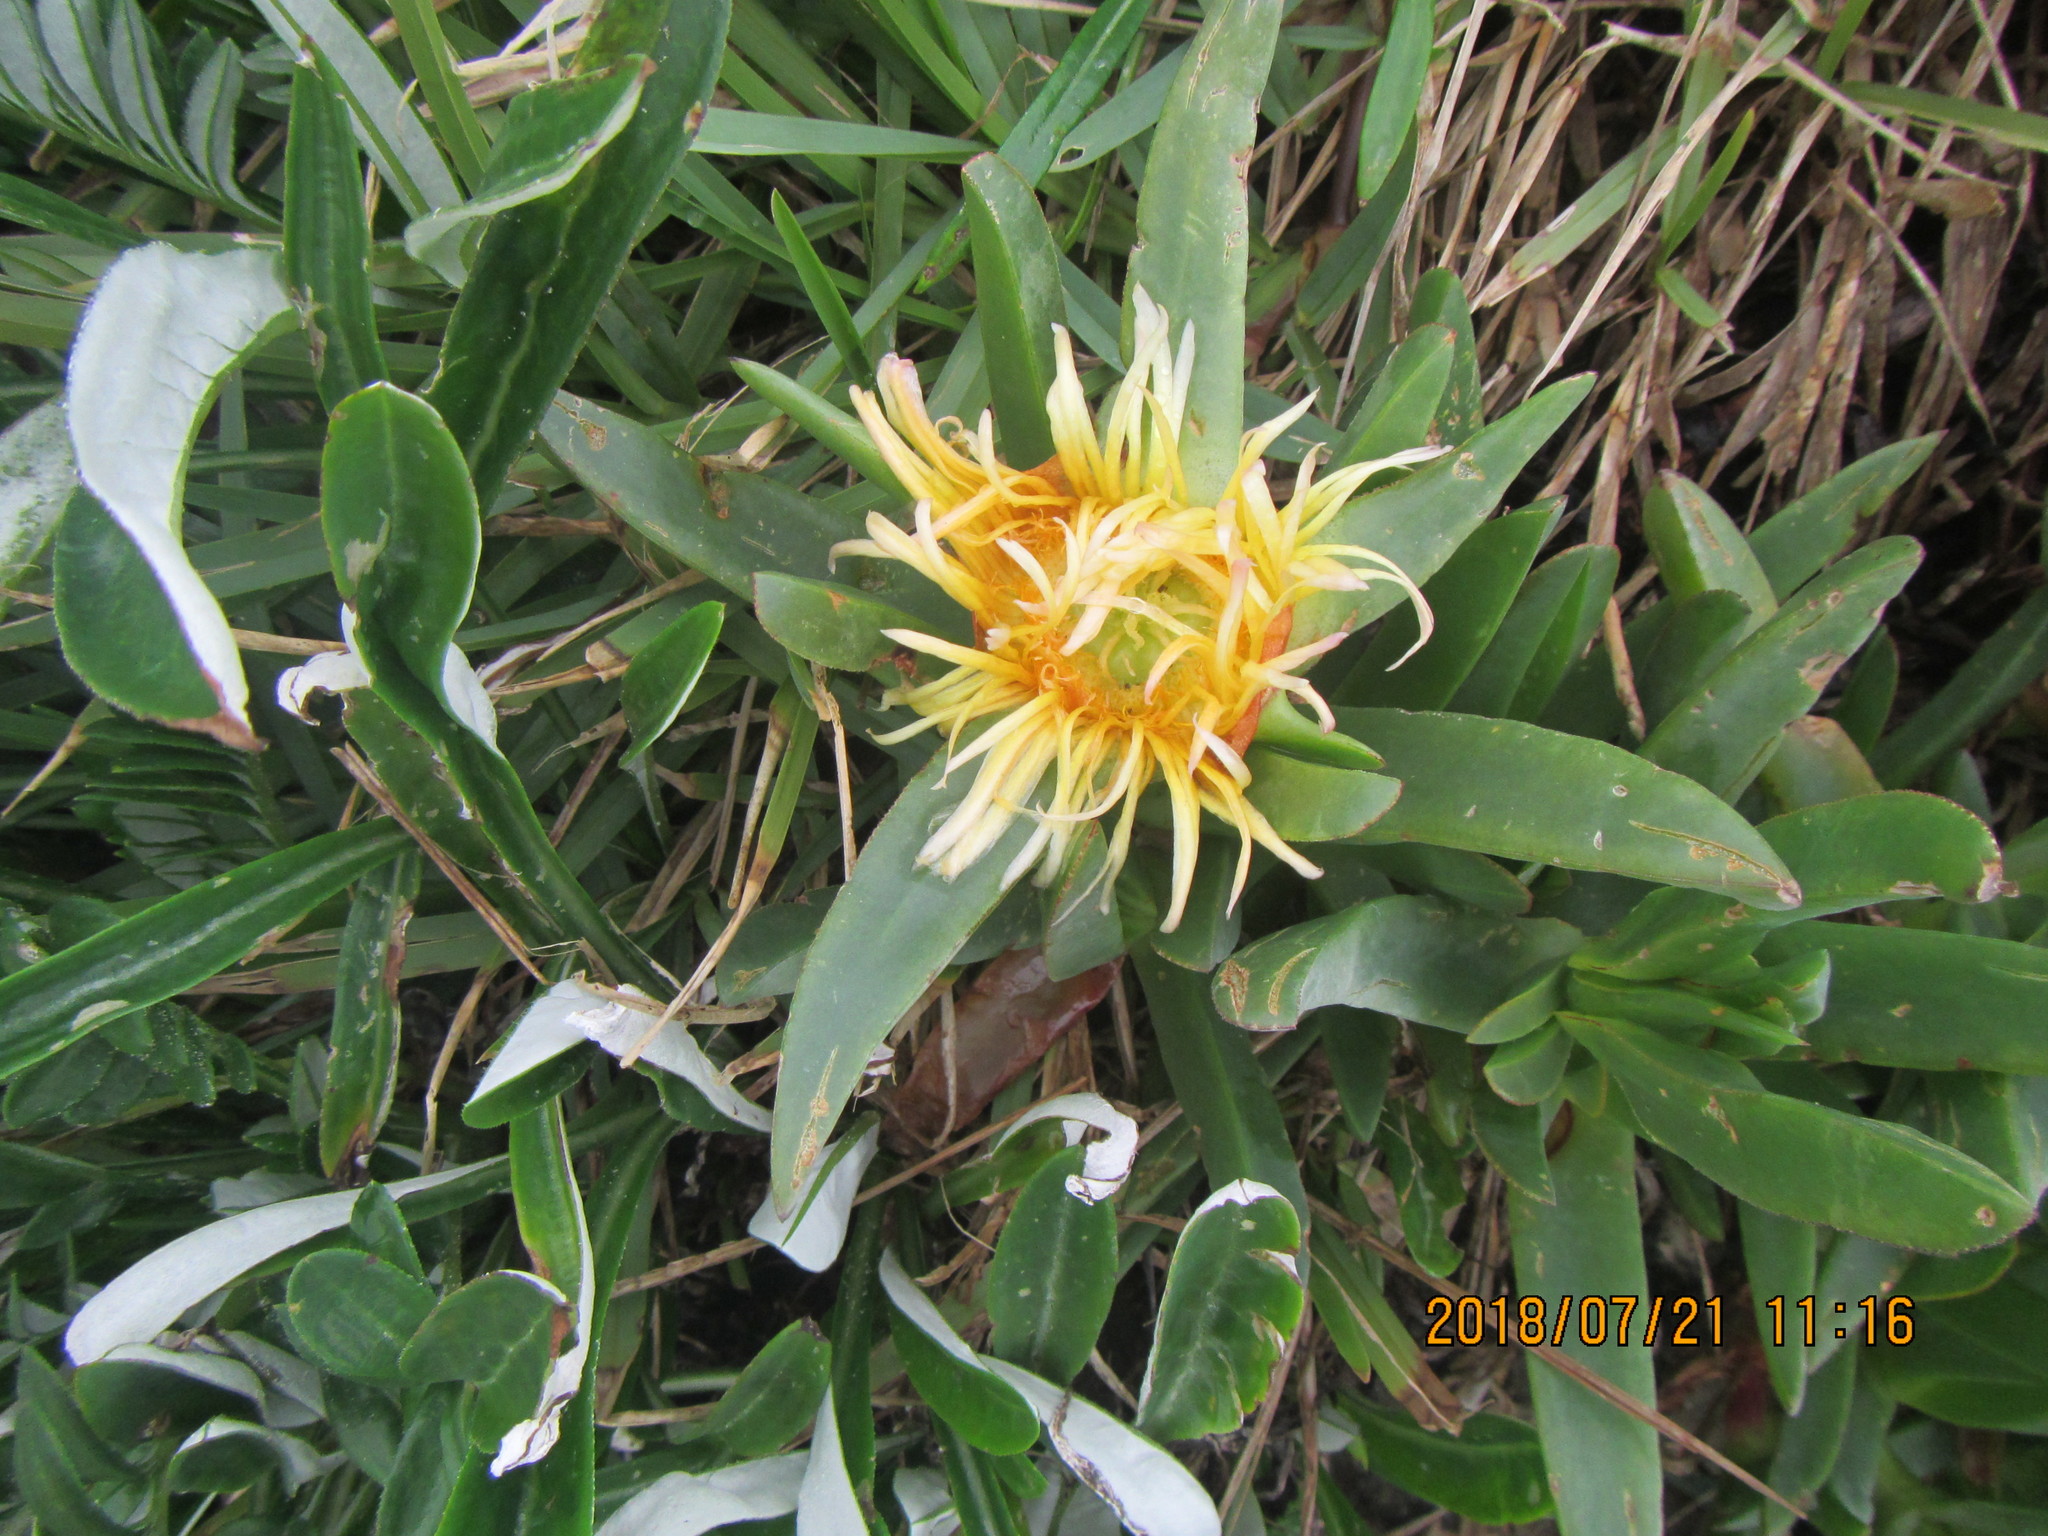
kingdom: Plantae
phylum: Tracheophyta
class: Magnoliopsida
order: Caryophyllales
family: Aizoaceae
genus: Carpobrotus
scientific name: Carpobrotus edulis
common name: Hottentot-fig
